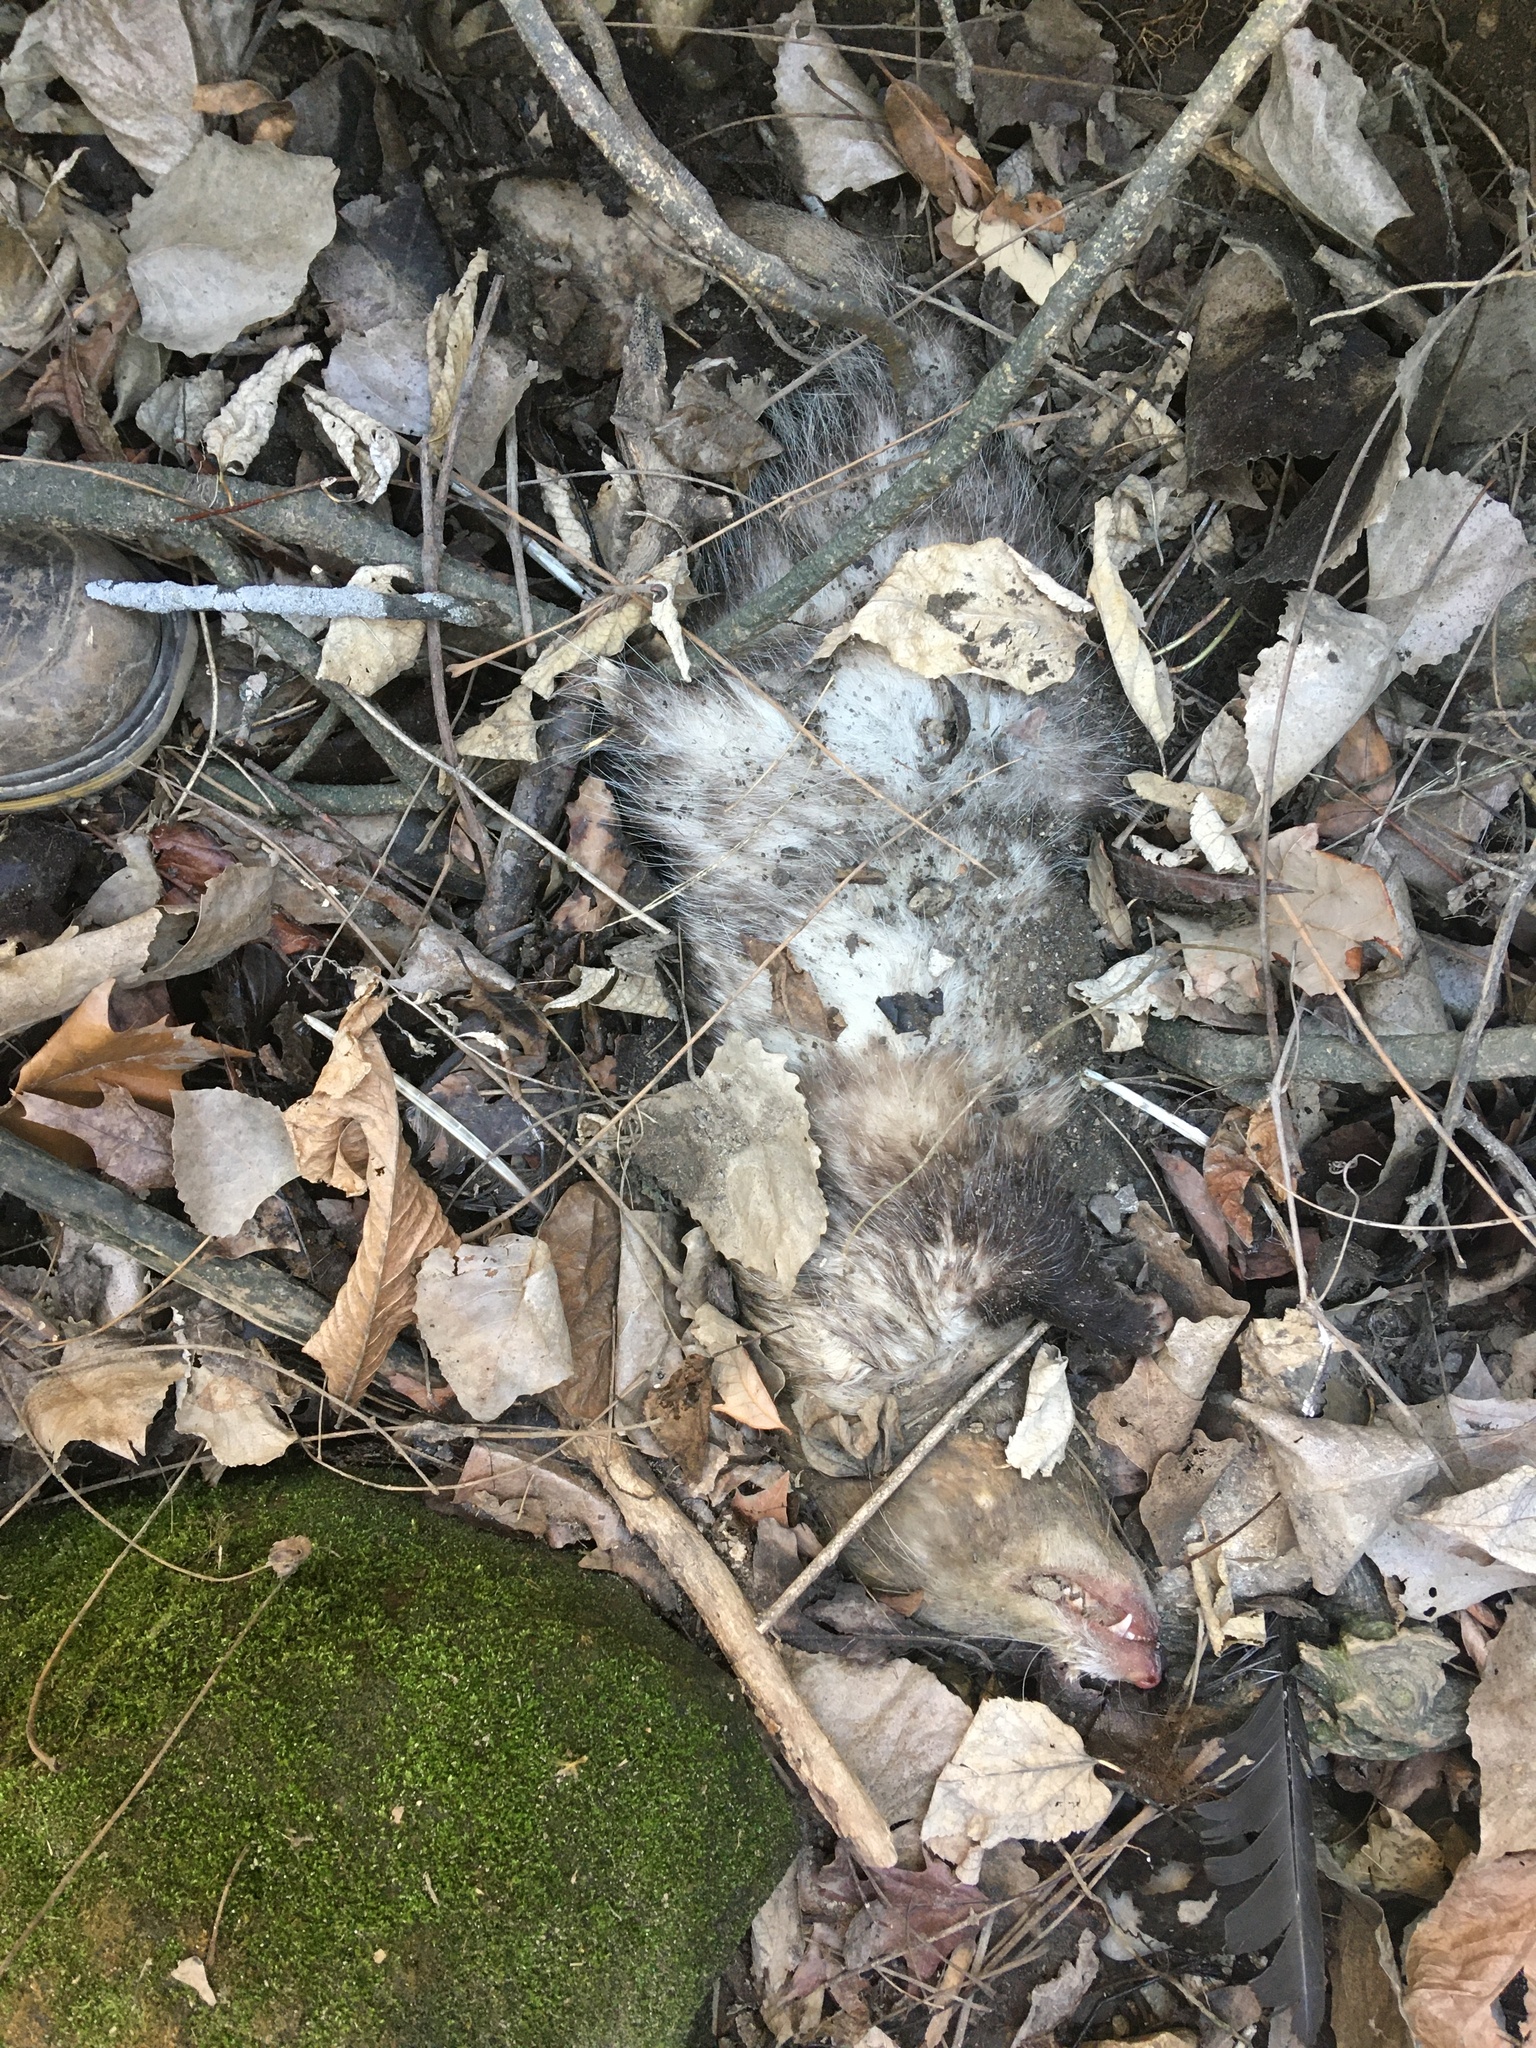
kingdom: Animalia
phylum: Chordata
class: Mammalia
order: Didelphimorphia
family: Didelphidae
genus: Didelphis
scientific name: Didelphis virginiana
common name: Virginia opossum
